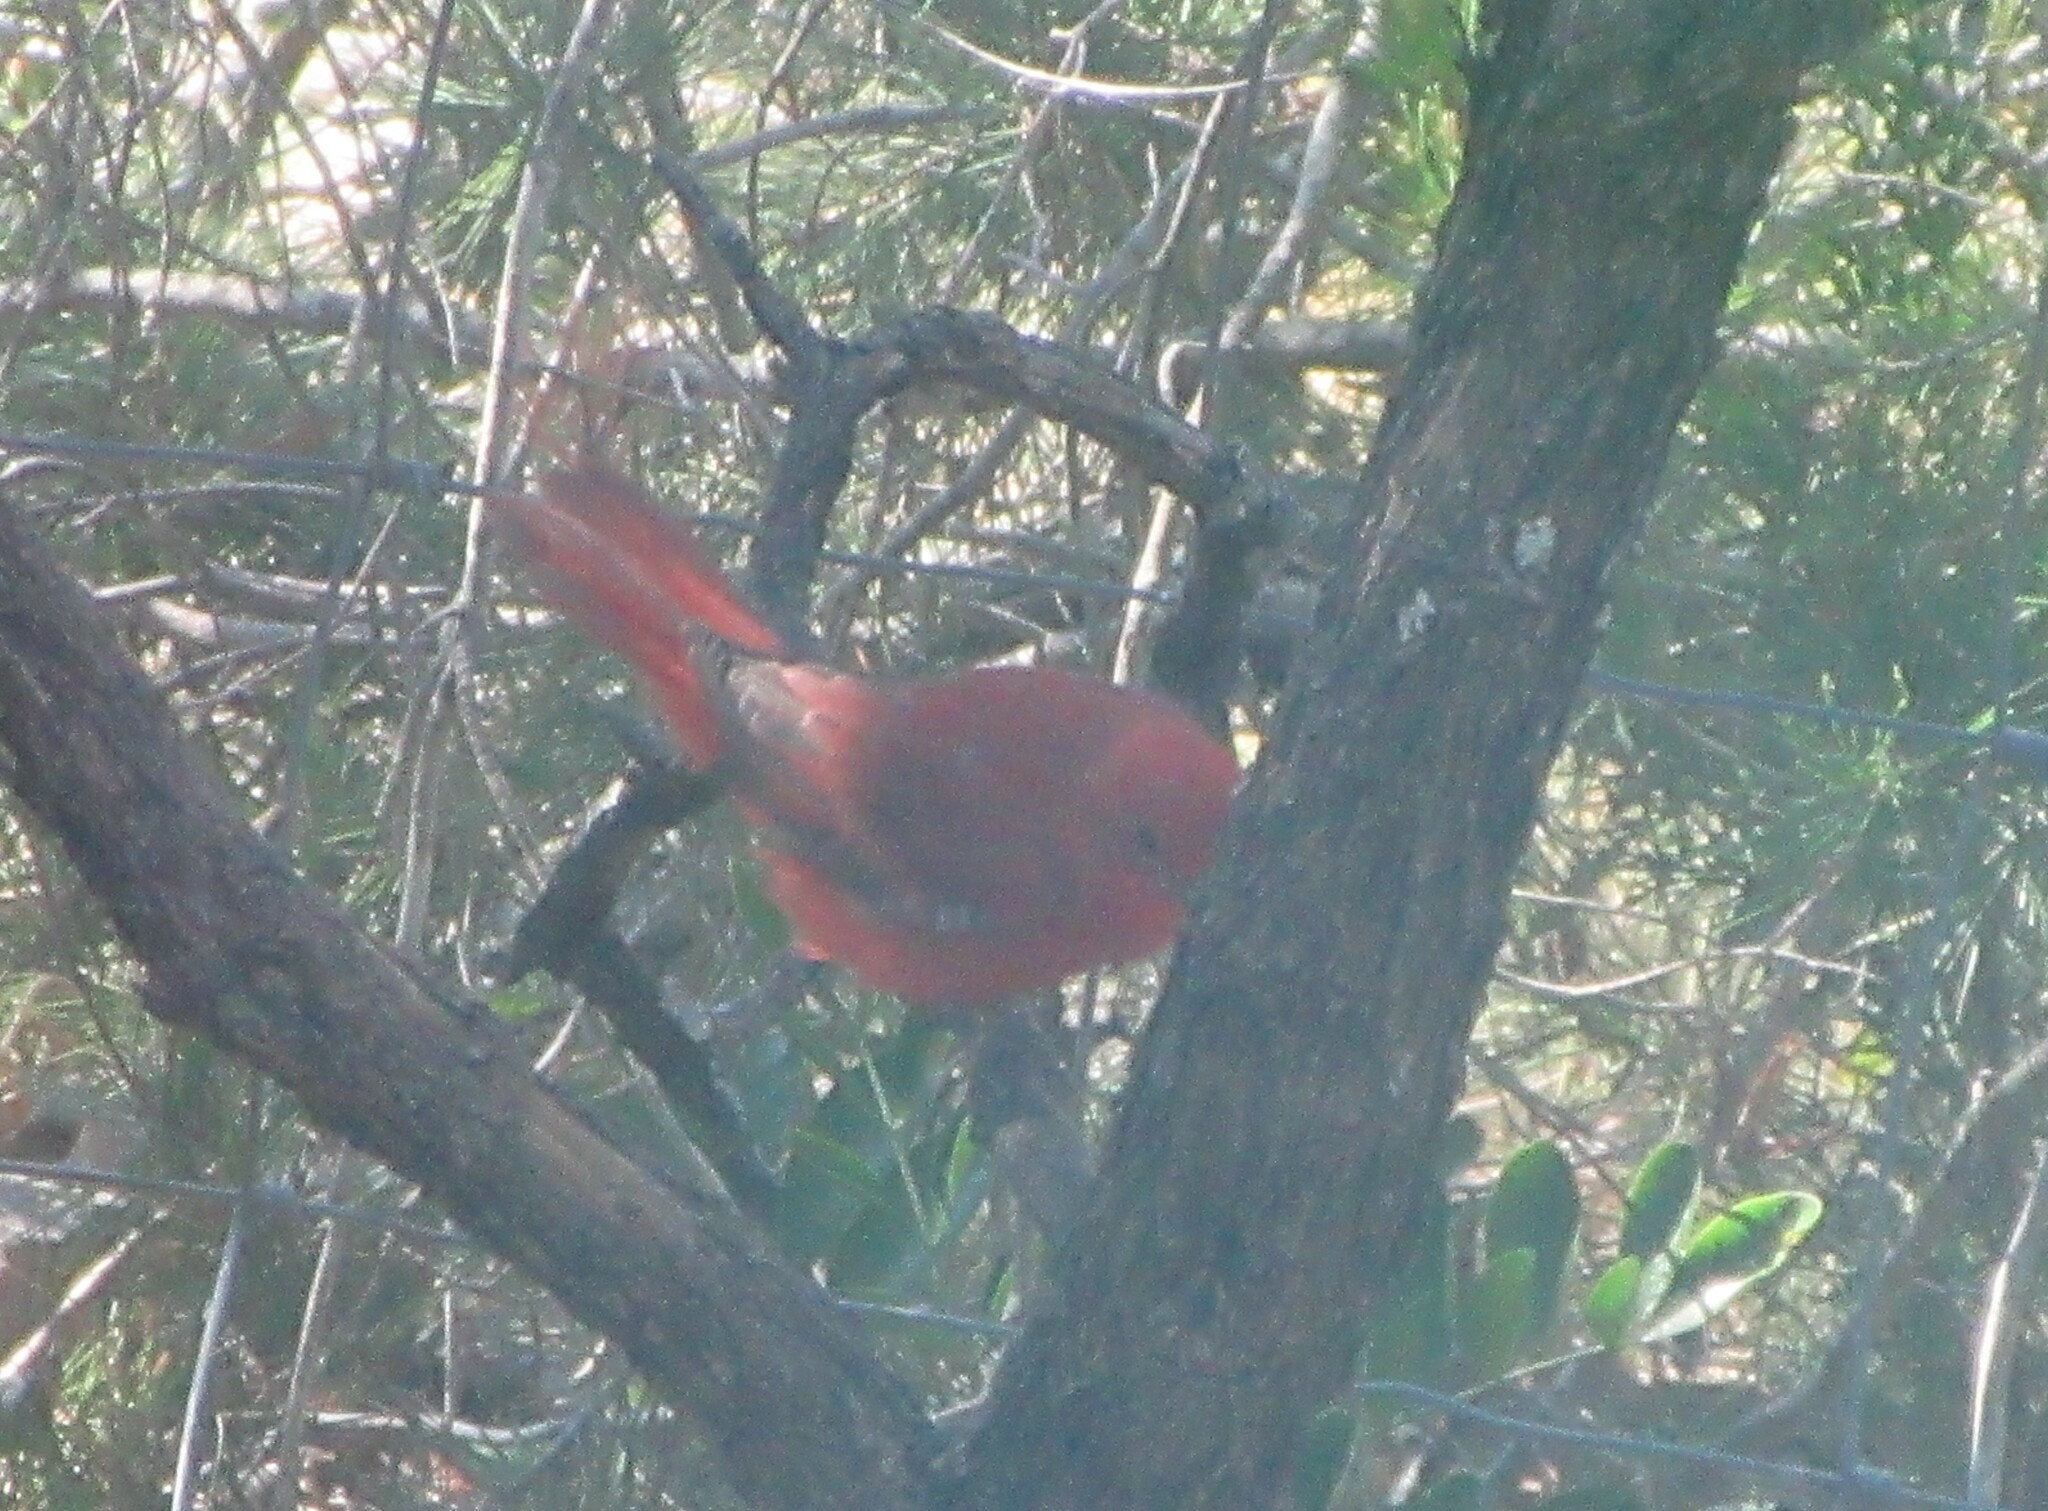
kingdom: Animalia
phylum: Chordata
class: Aves
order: Passeriformes
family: Cardinalidae
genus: Piranga
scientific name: Piranga rubra
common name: Summer tanager
